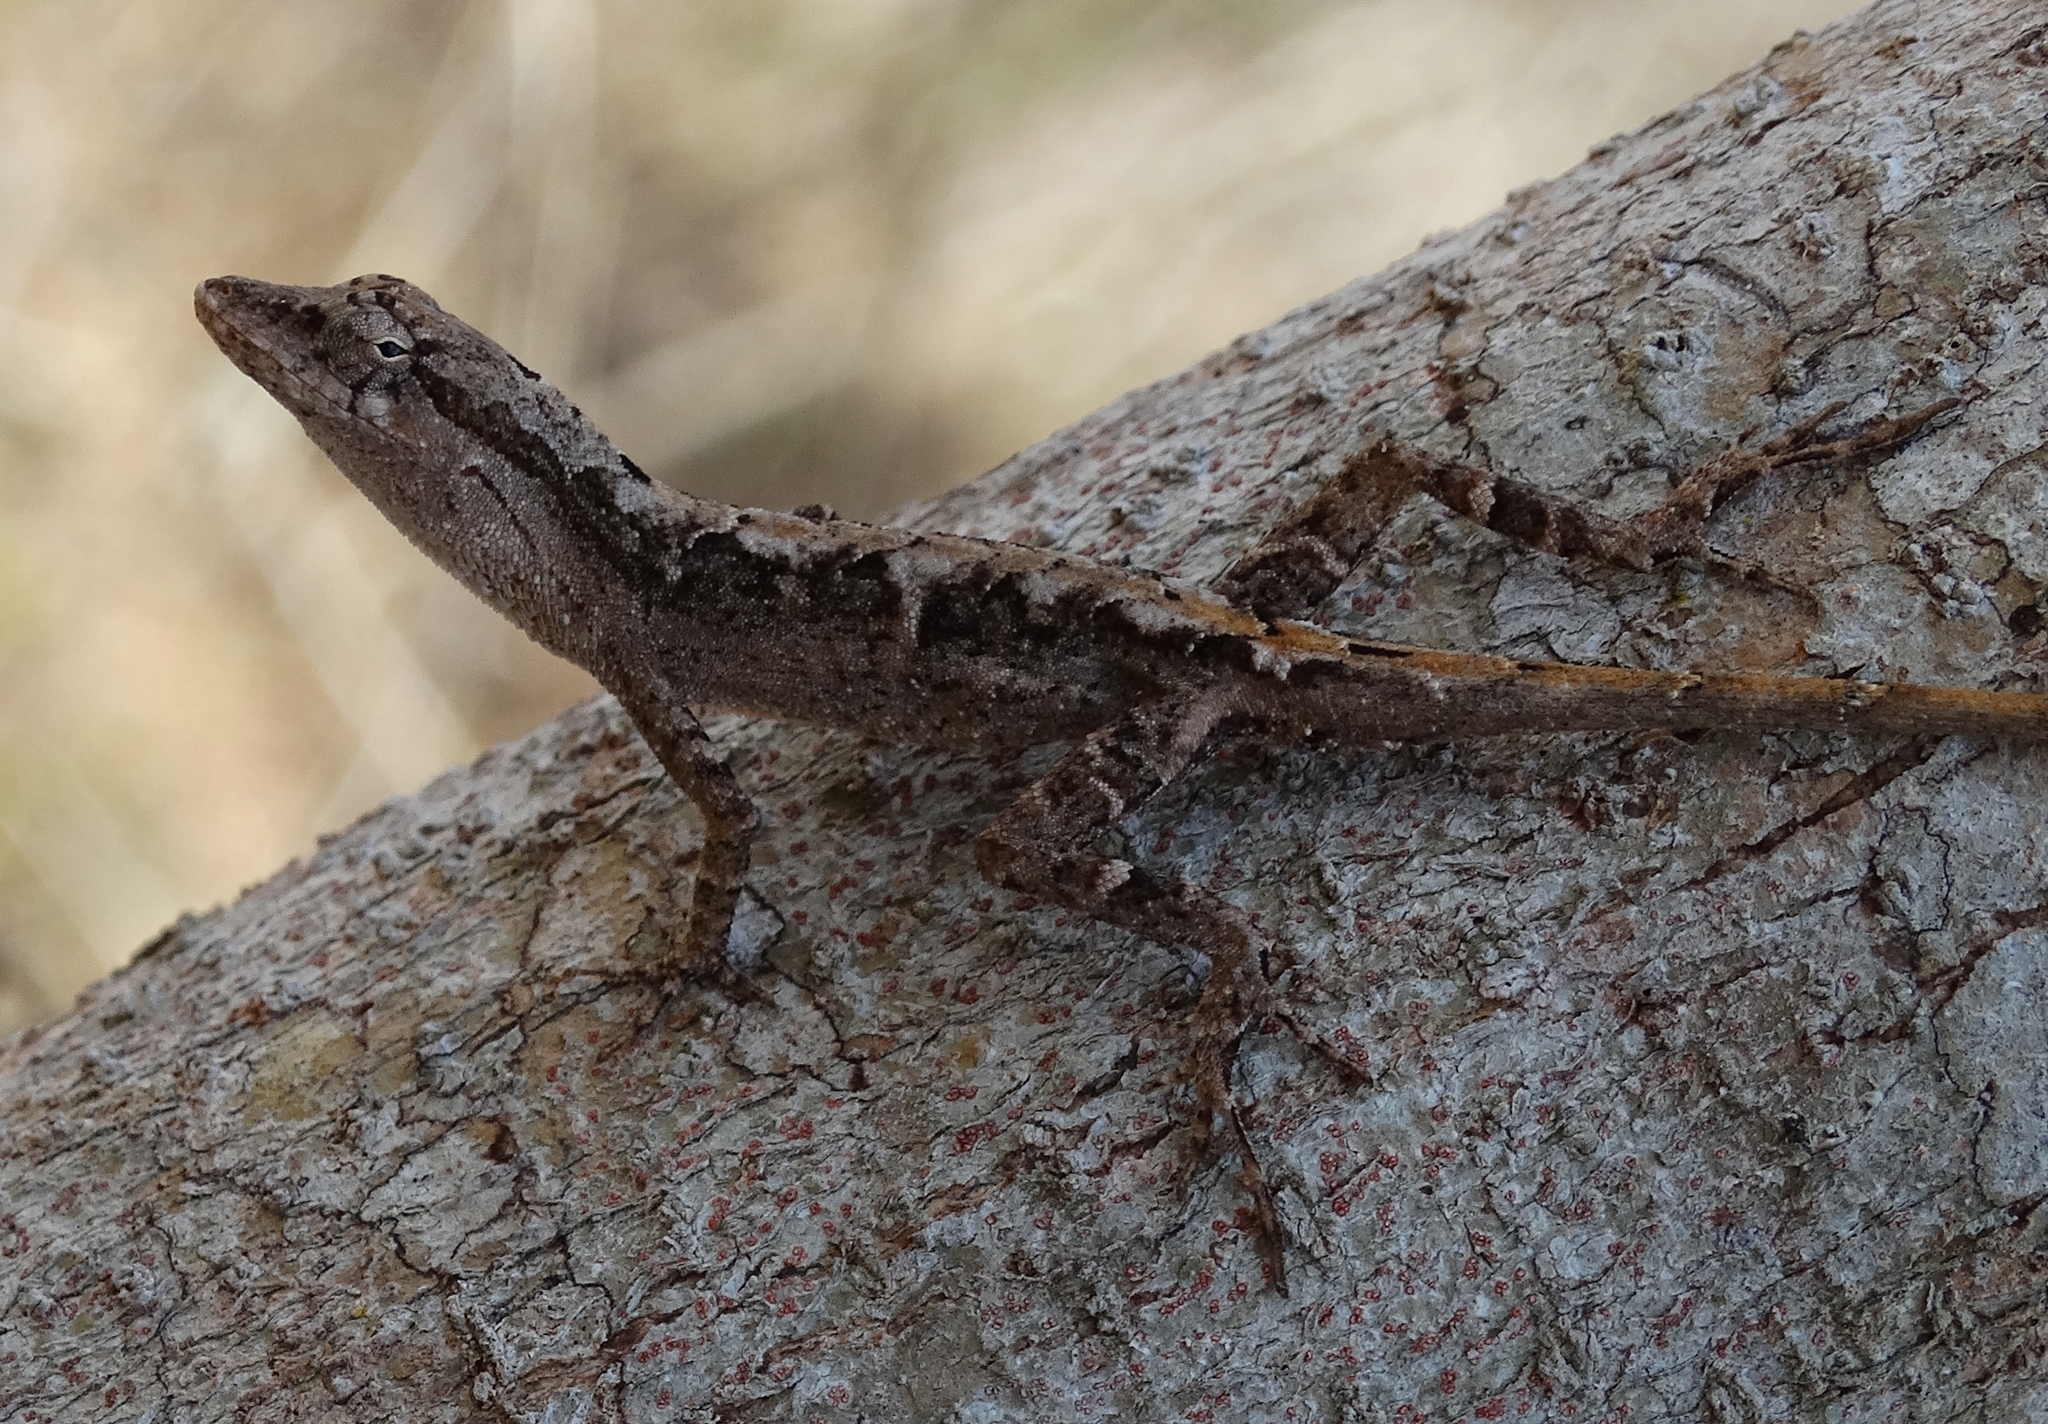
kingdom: Animalia
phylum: Chordata
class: Squamata
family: Dactyloidae
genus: Anolis
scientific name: Anolis nebulosus
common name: Clouded anole
